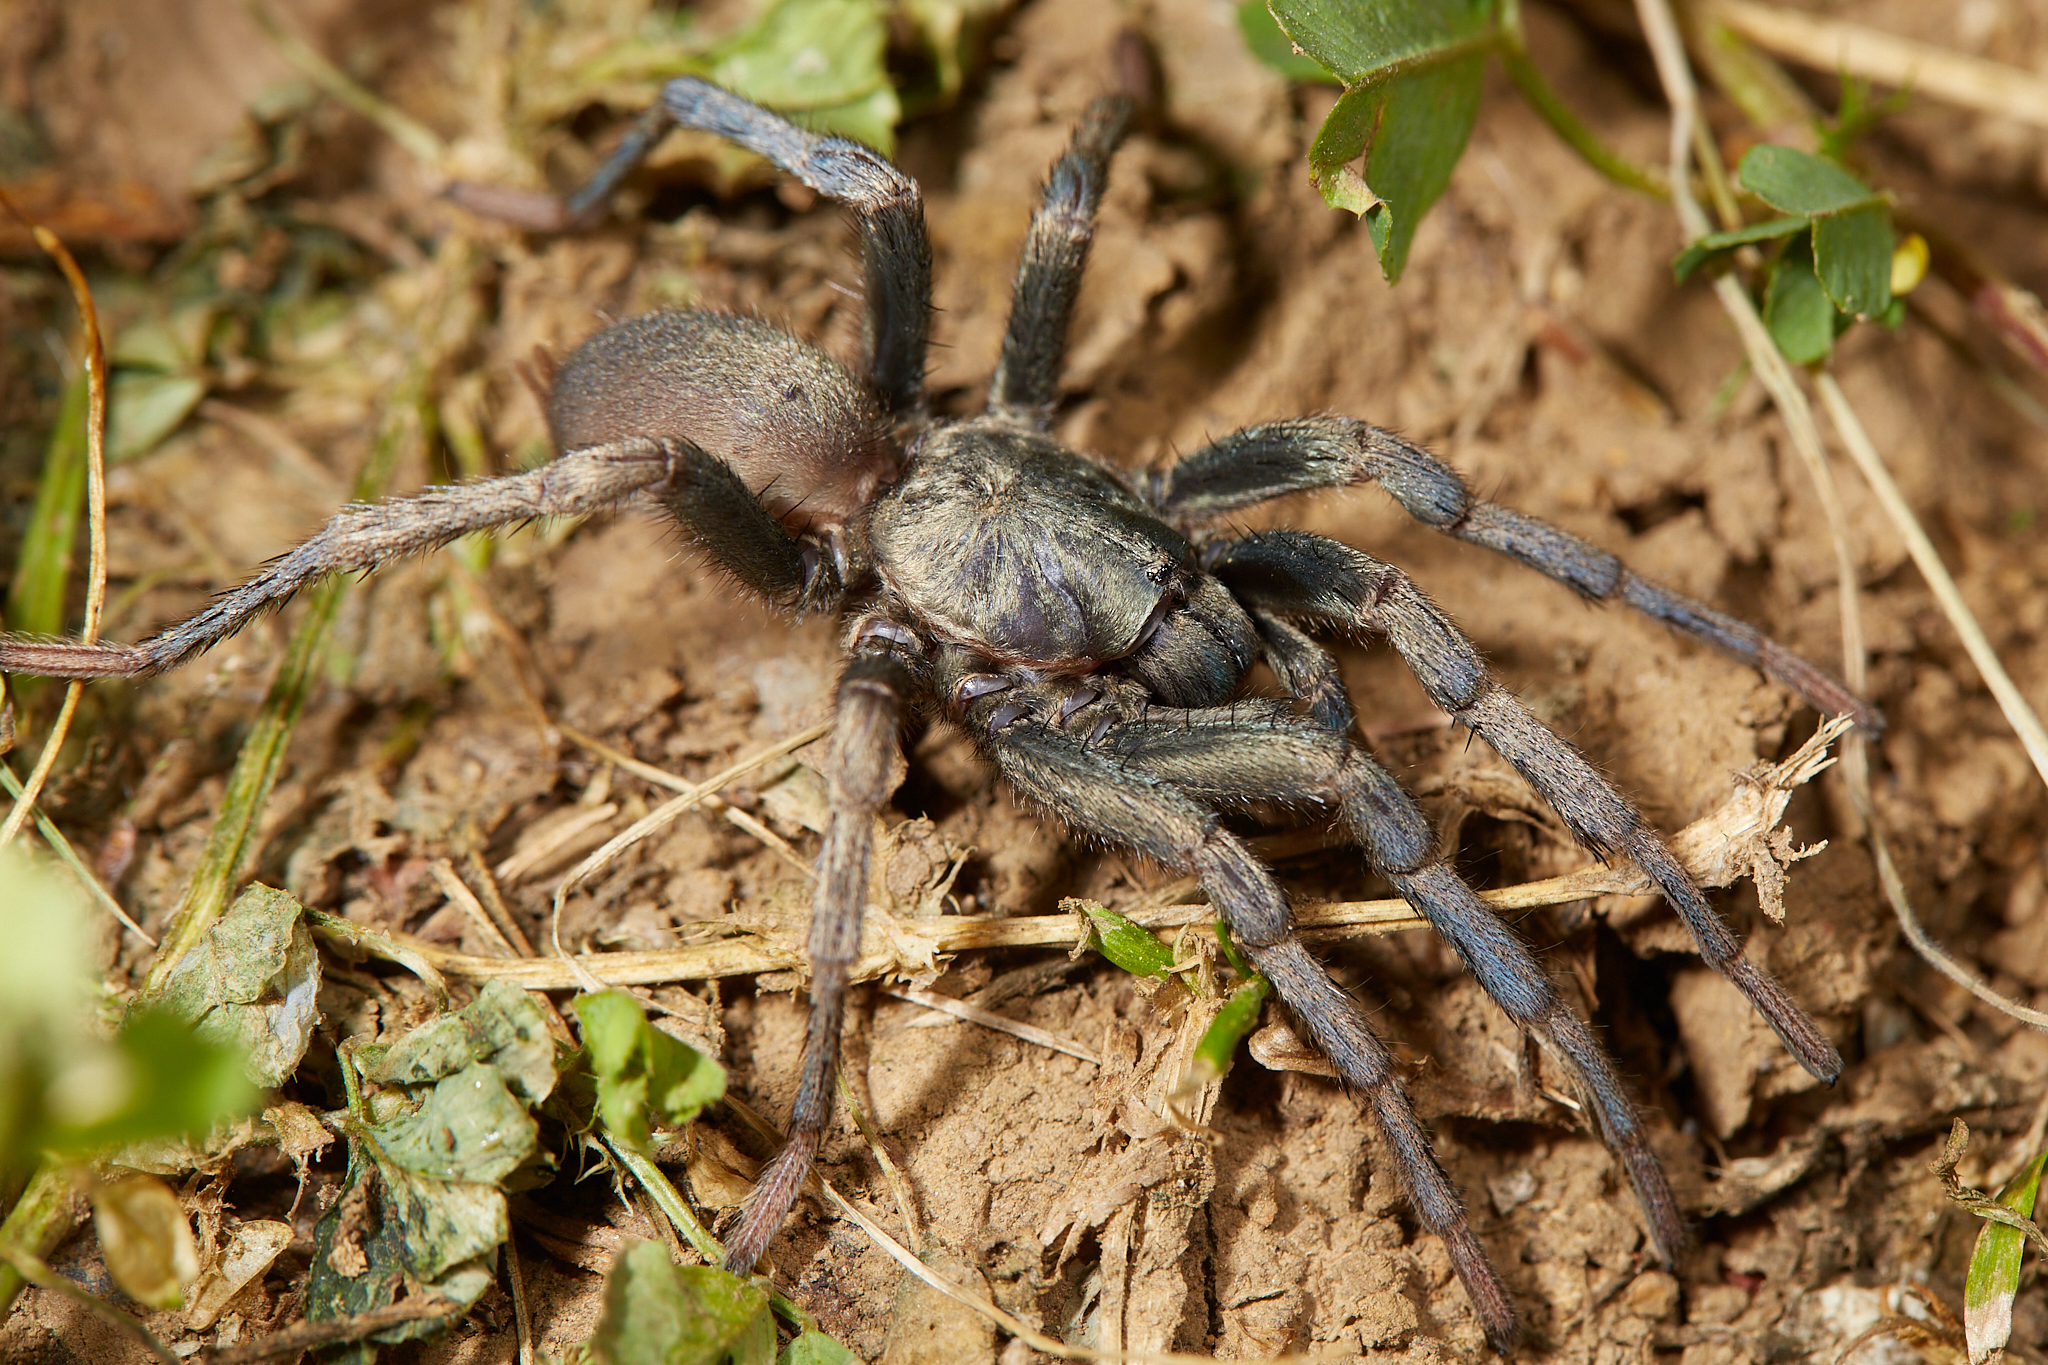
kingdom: Animalia
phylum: Arthropoda
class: Arachnida
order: Araneae
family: Nemesiidae
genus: Calisoga
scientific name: Calisoga longitarsis
